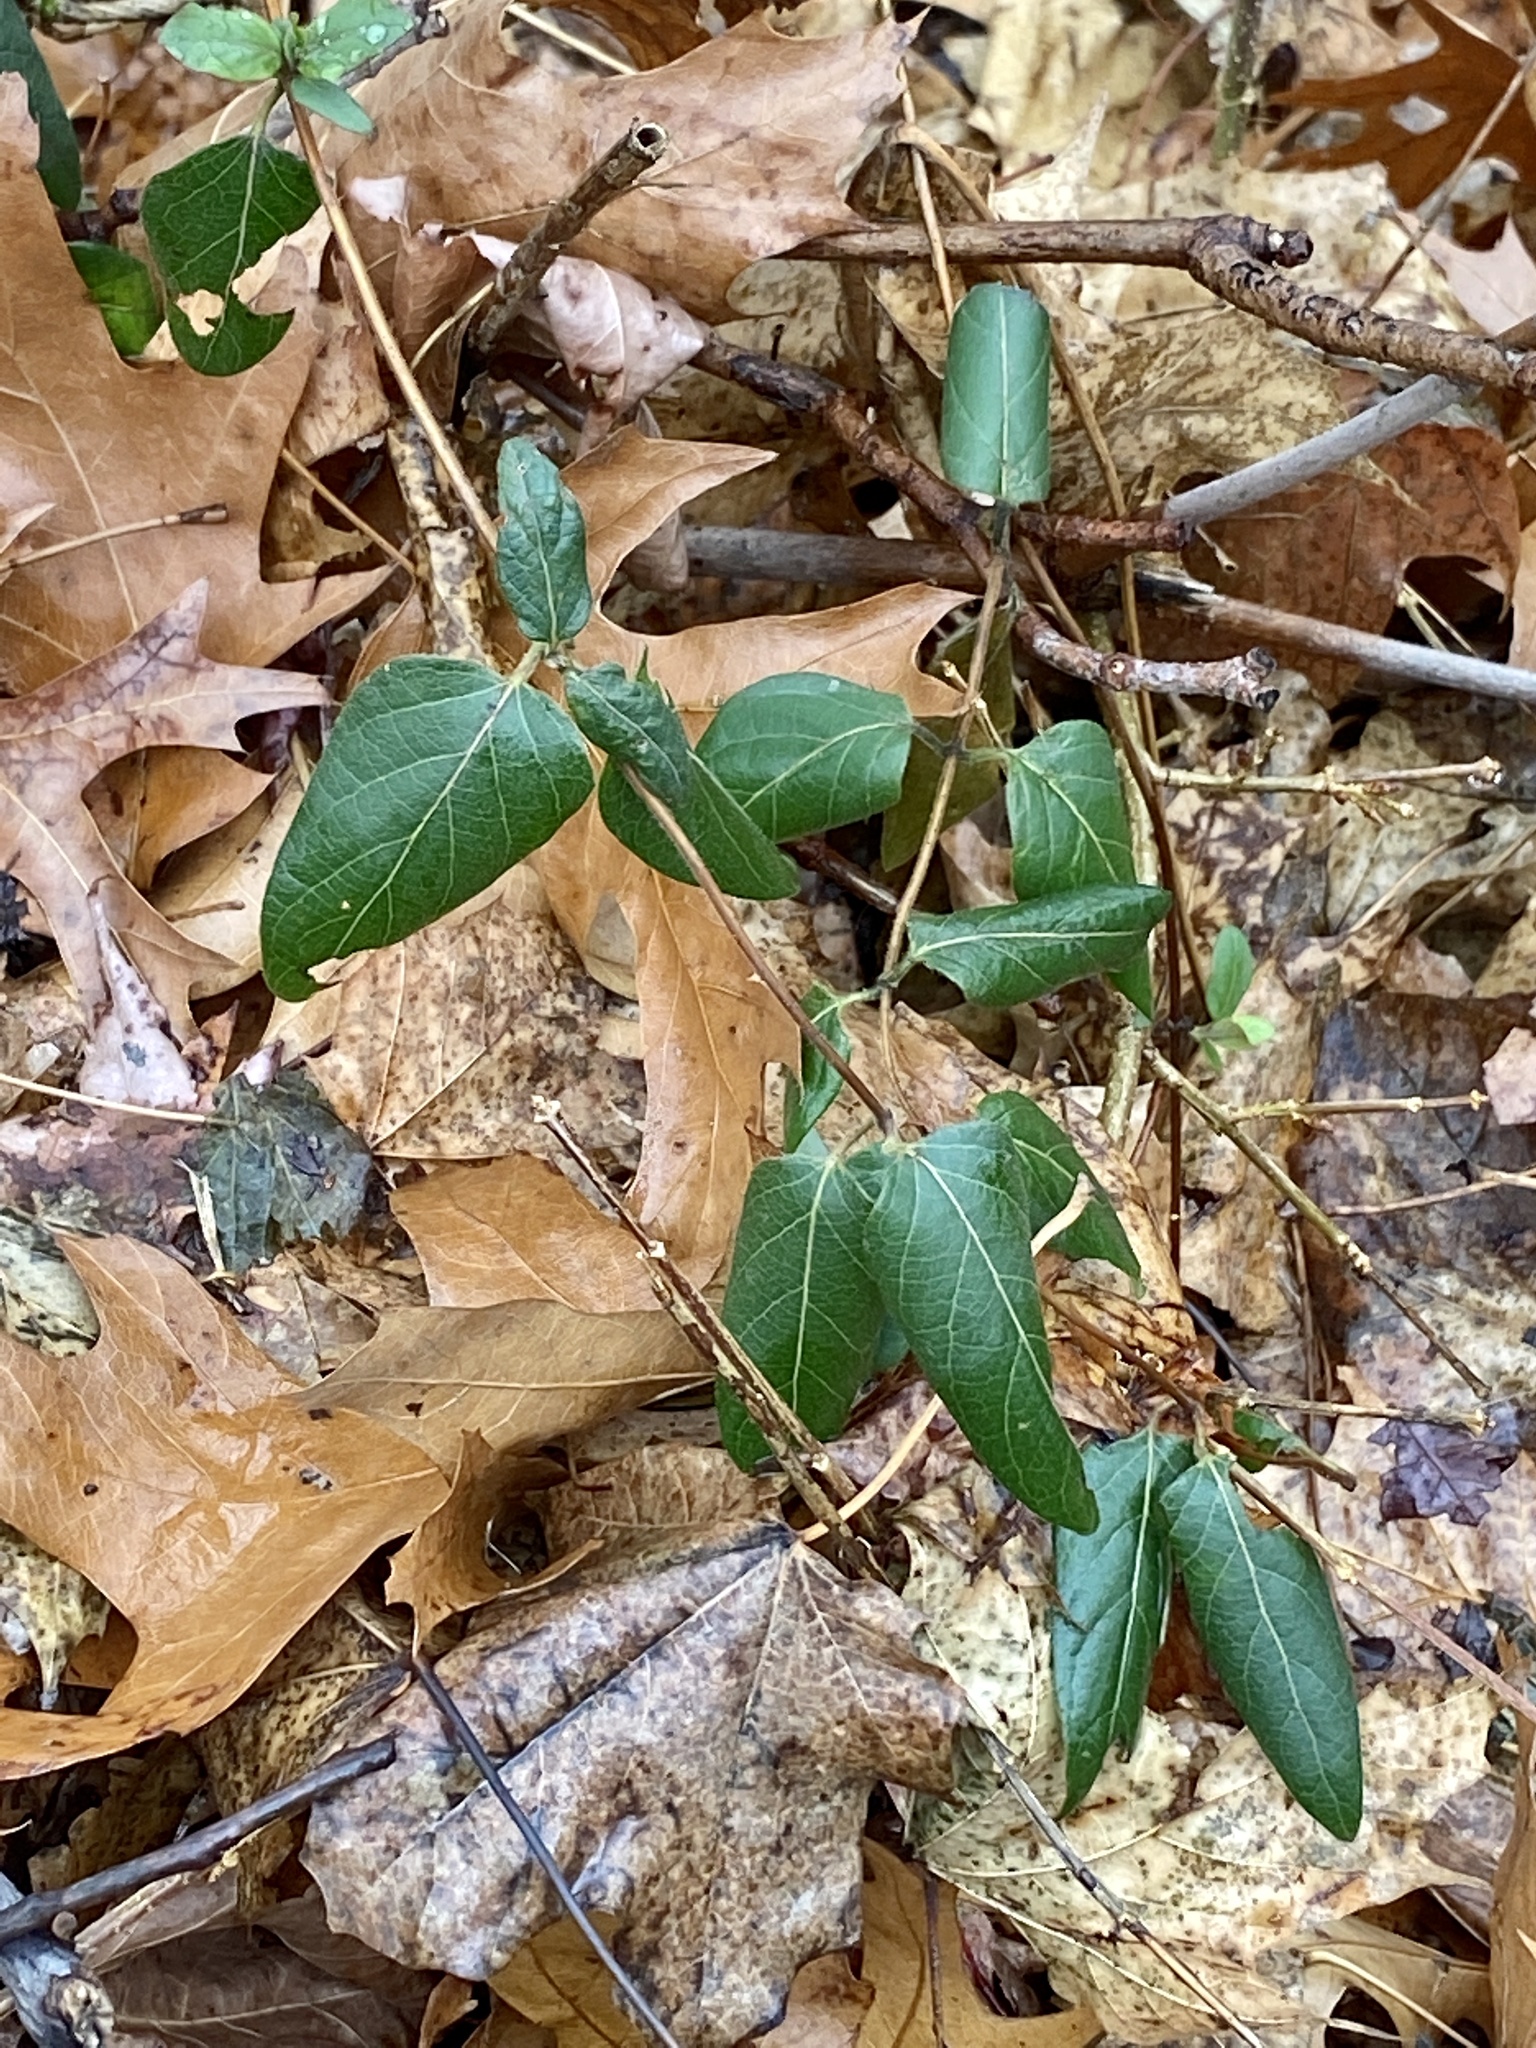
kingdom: Plantae
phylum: Tracheophyta
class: Magnoliopsida
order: Dipsacales
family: Caprifoliaceae
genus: Lonicera
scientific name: Lonicera japonica
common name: Japanese honeysuckle
